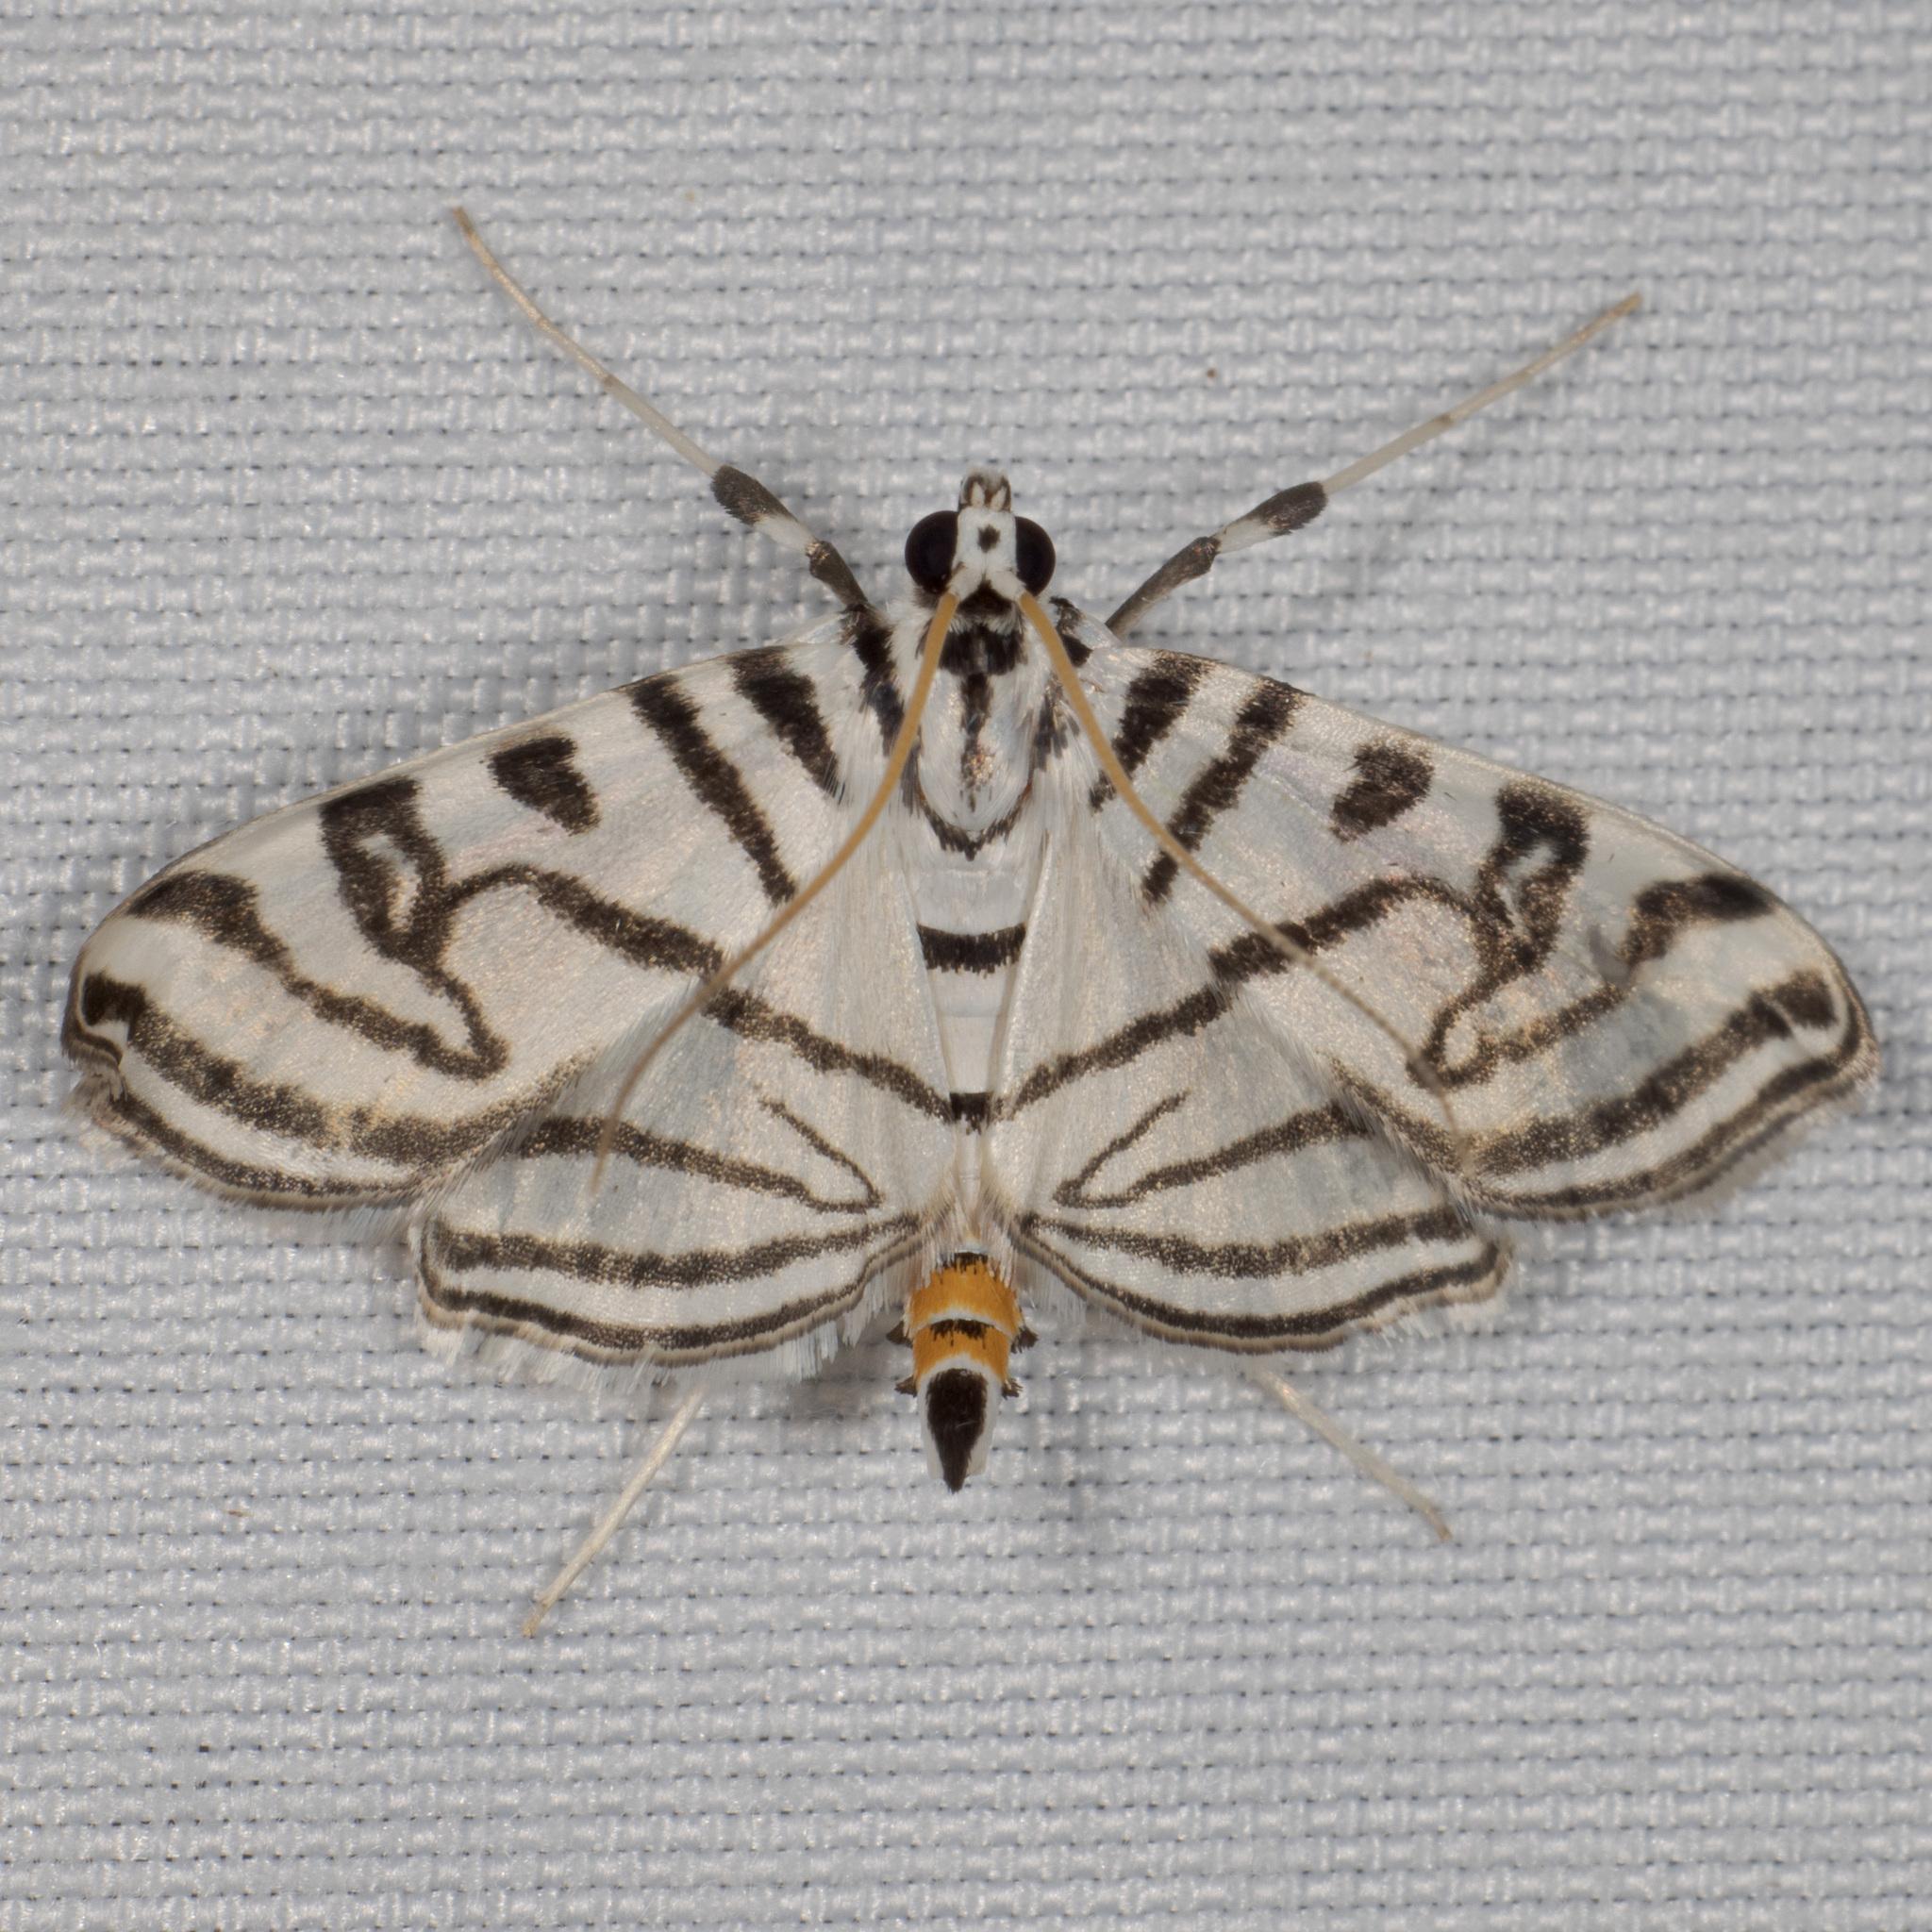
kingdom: Animalia
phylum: Arthropoda
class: Insecta
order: Lepidoptera
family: Crambidae
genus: Conchylodes
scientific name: Conchylodes ovulalis
